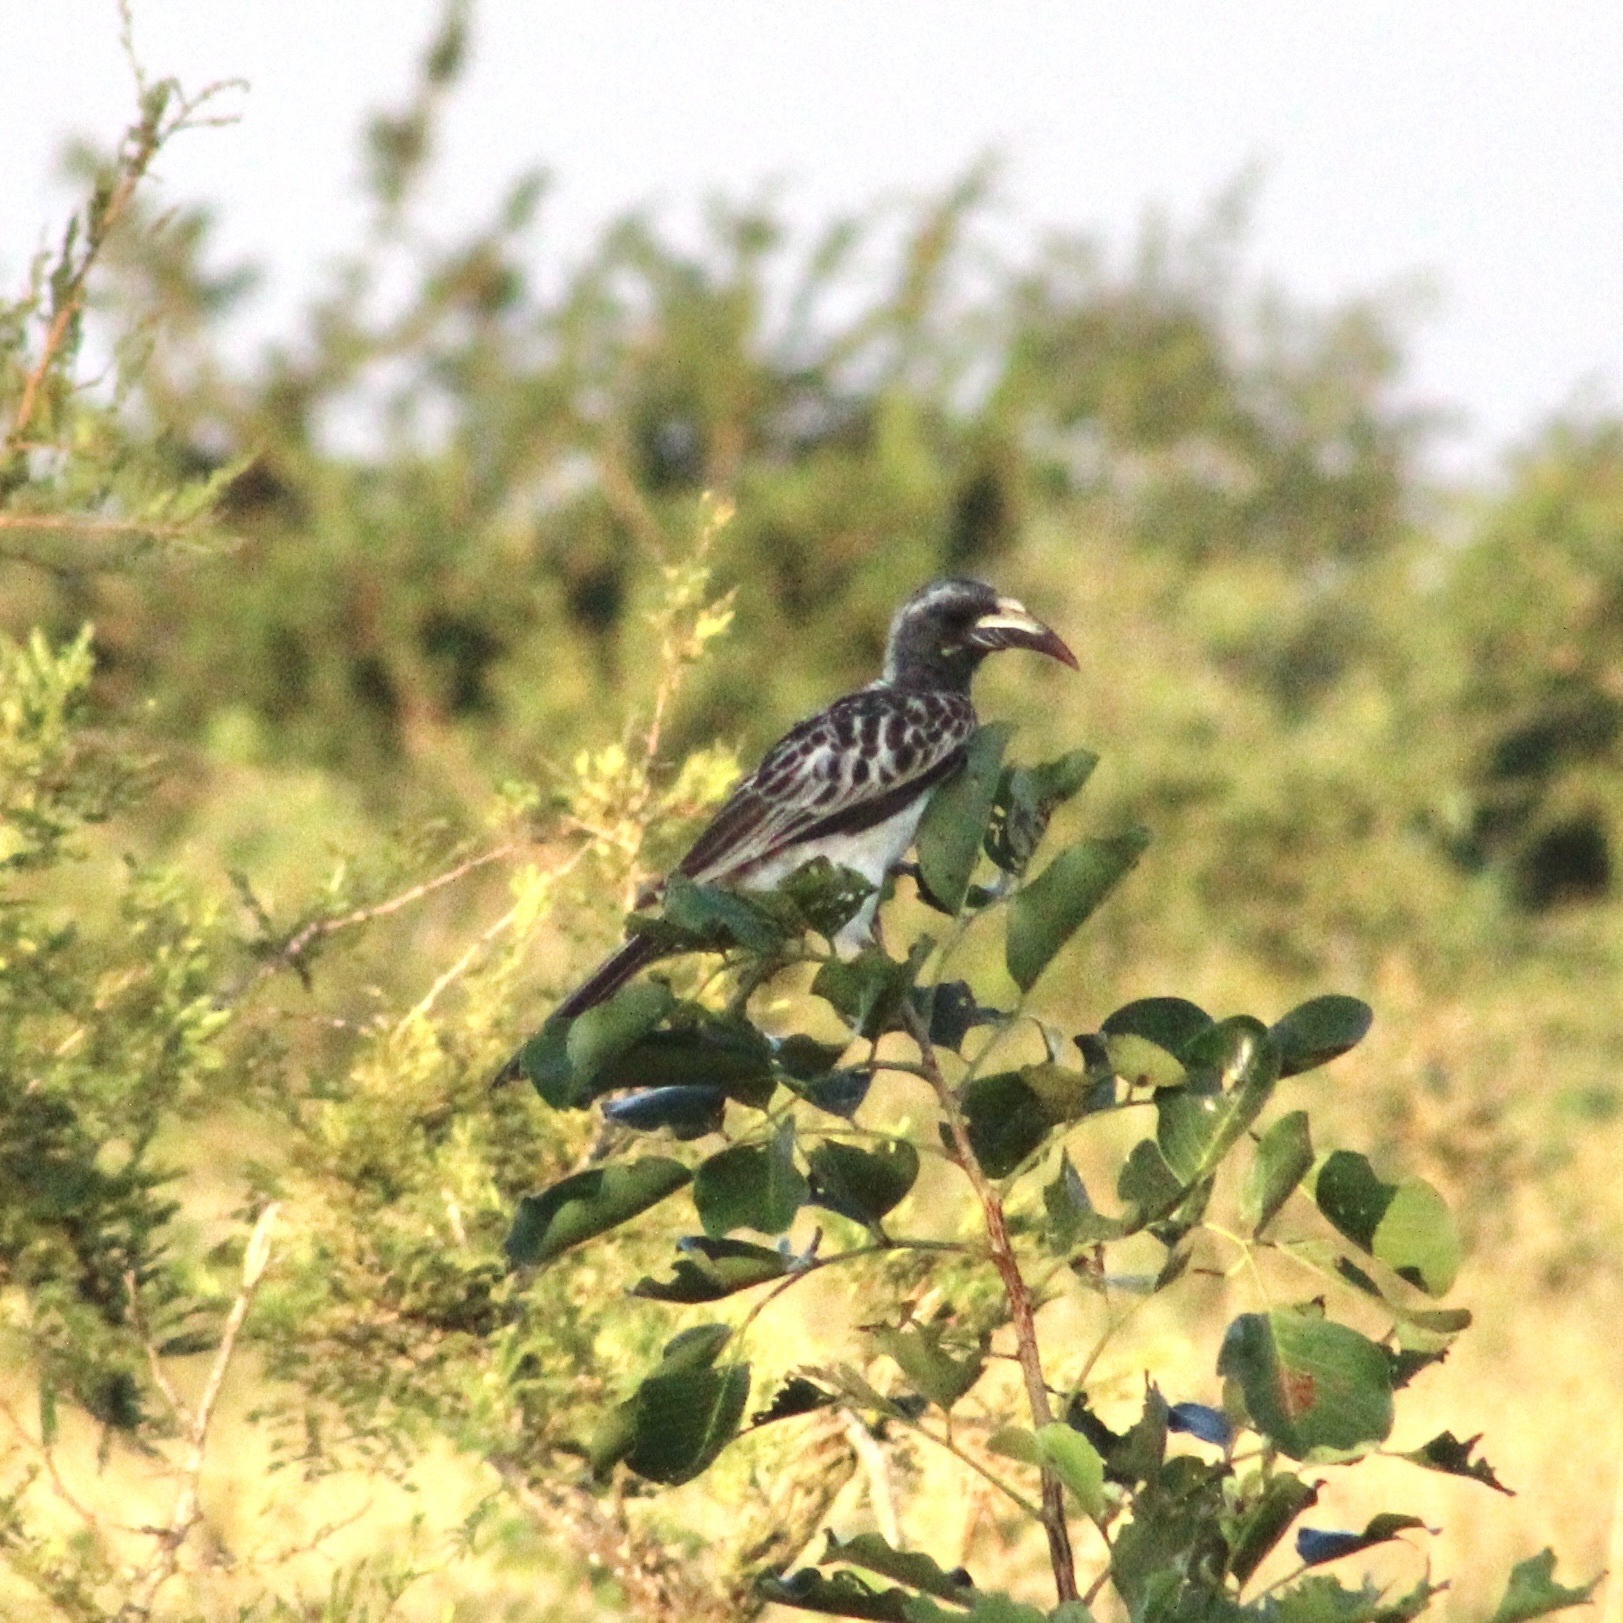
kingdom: Animalia
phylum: Chordata
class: Aves
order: Bucerotiformes
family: Bucerotidae
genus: Lophoceros
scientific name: Lophoceros nasutus
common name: African grey hornbill
